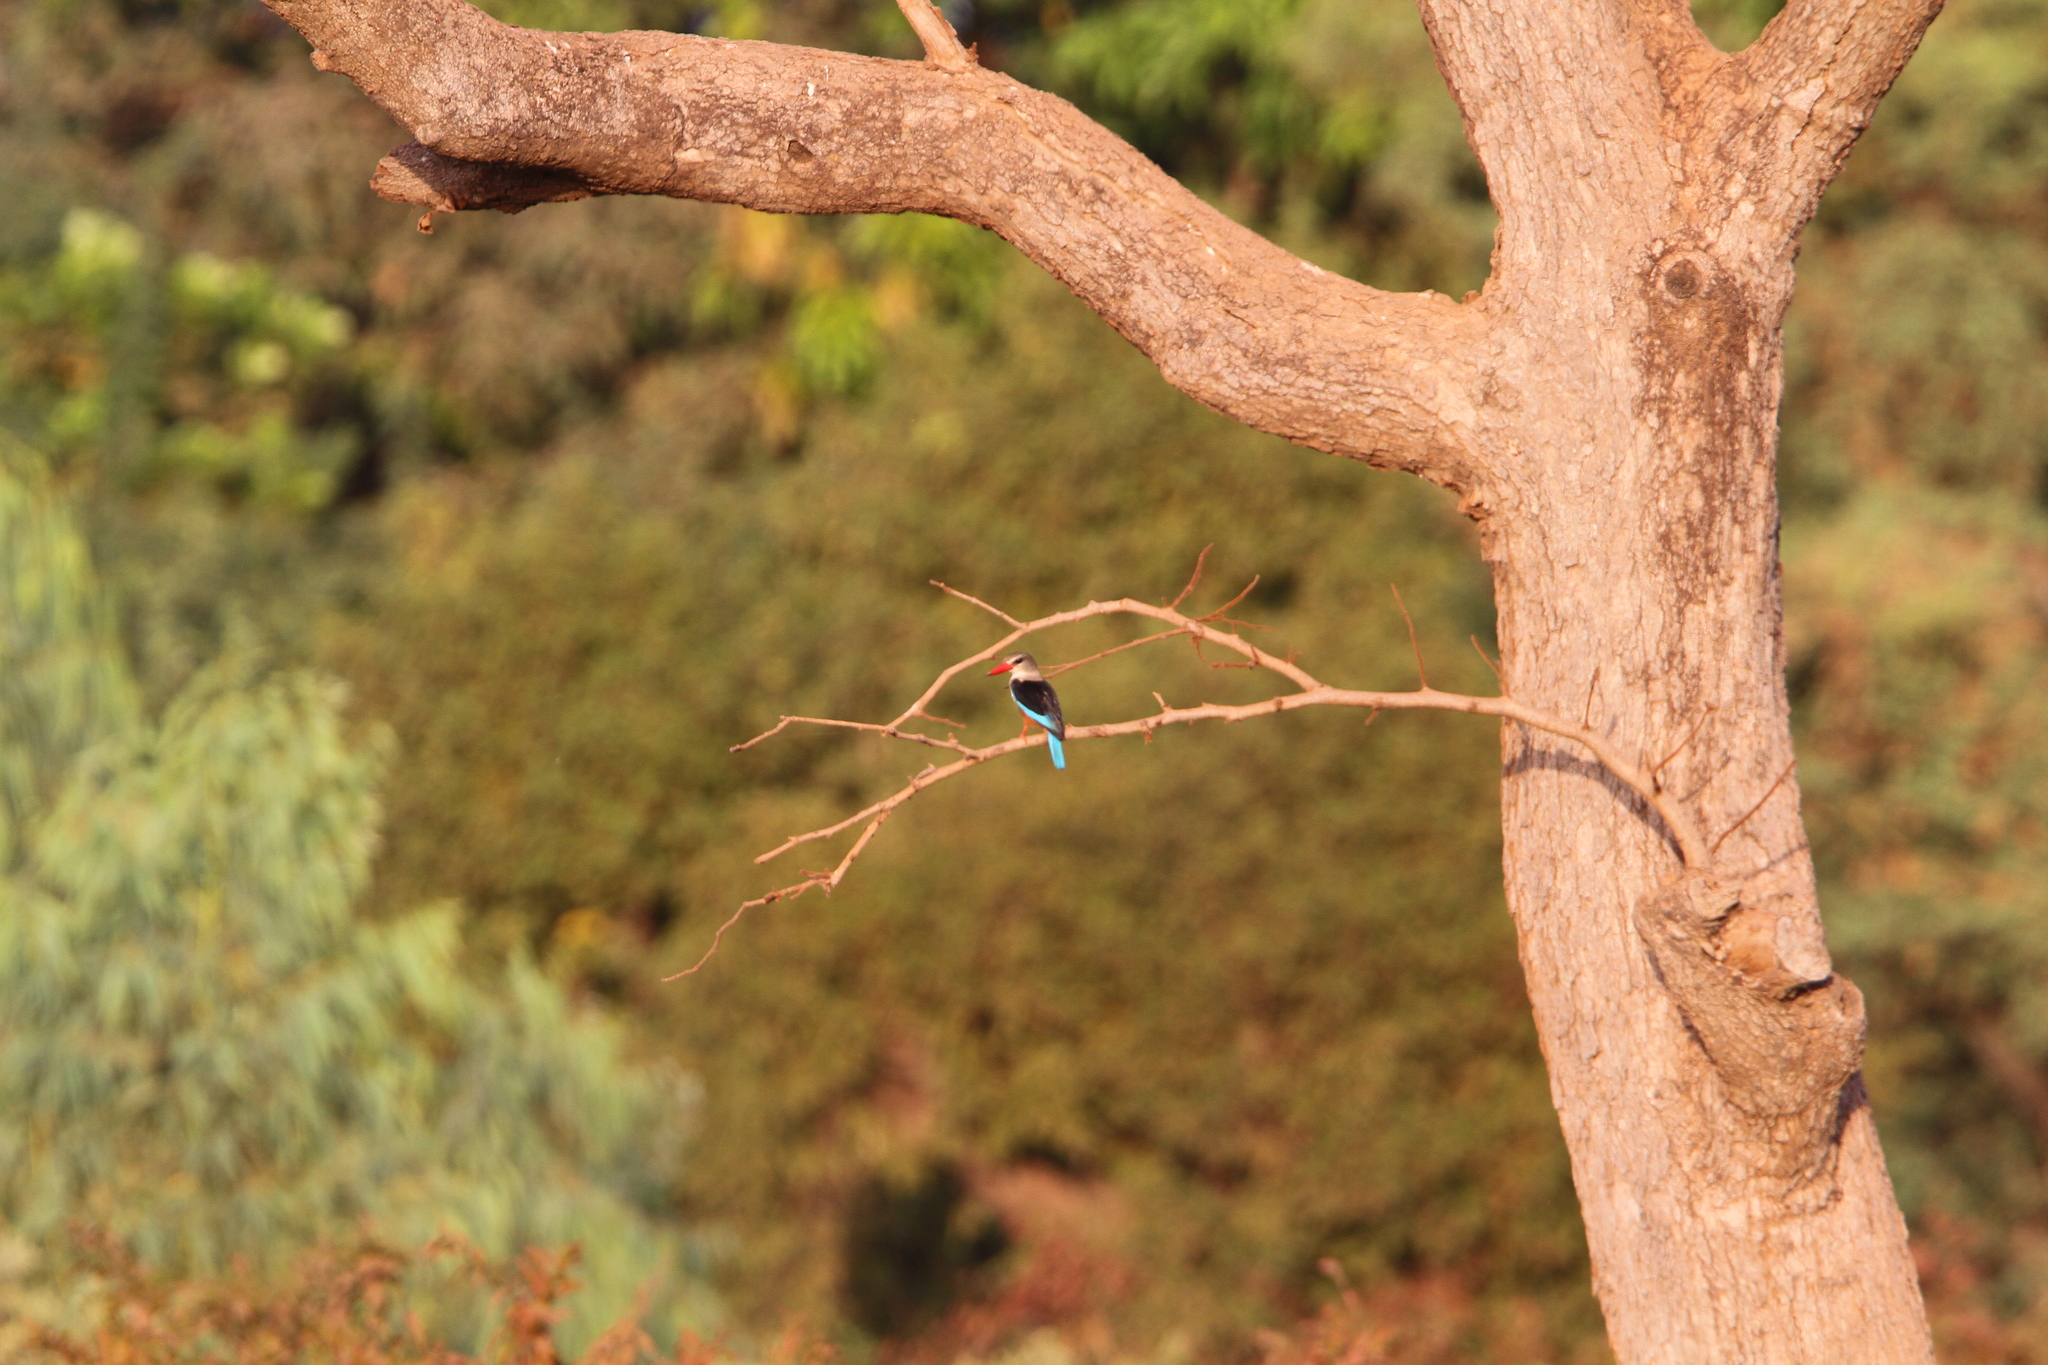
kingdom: Animalia
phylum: Chordata
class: Aves
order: Coraciiformes
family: Alcedinidae
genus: Halcyon
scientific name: Halcyon leucocephala
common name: Grey-headed kingfisher
